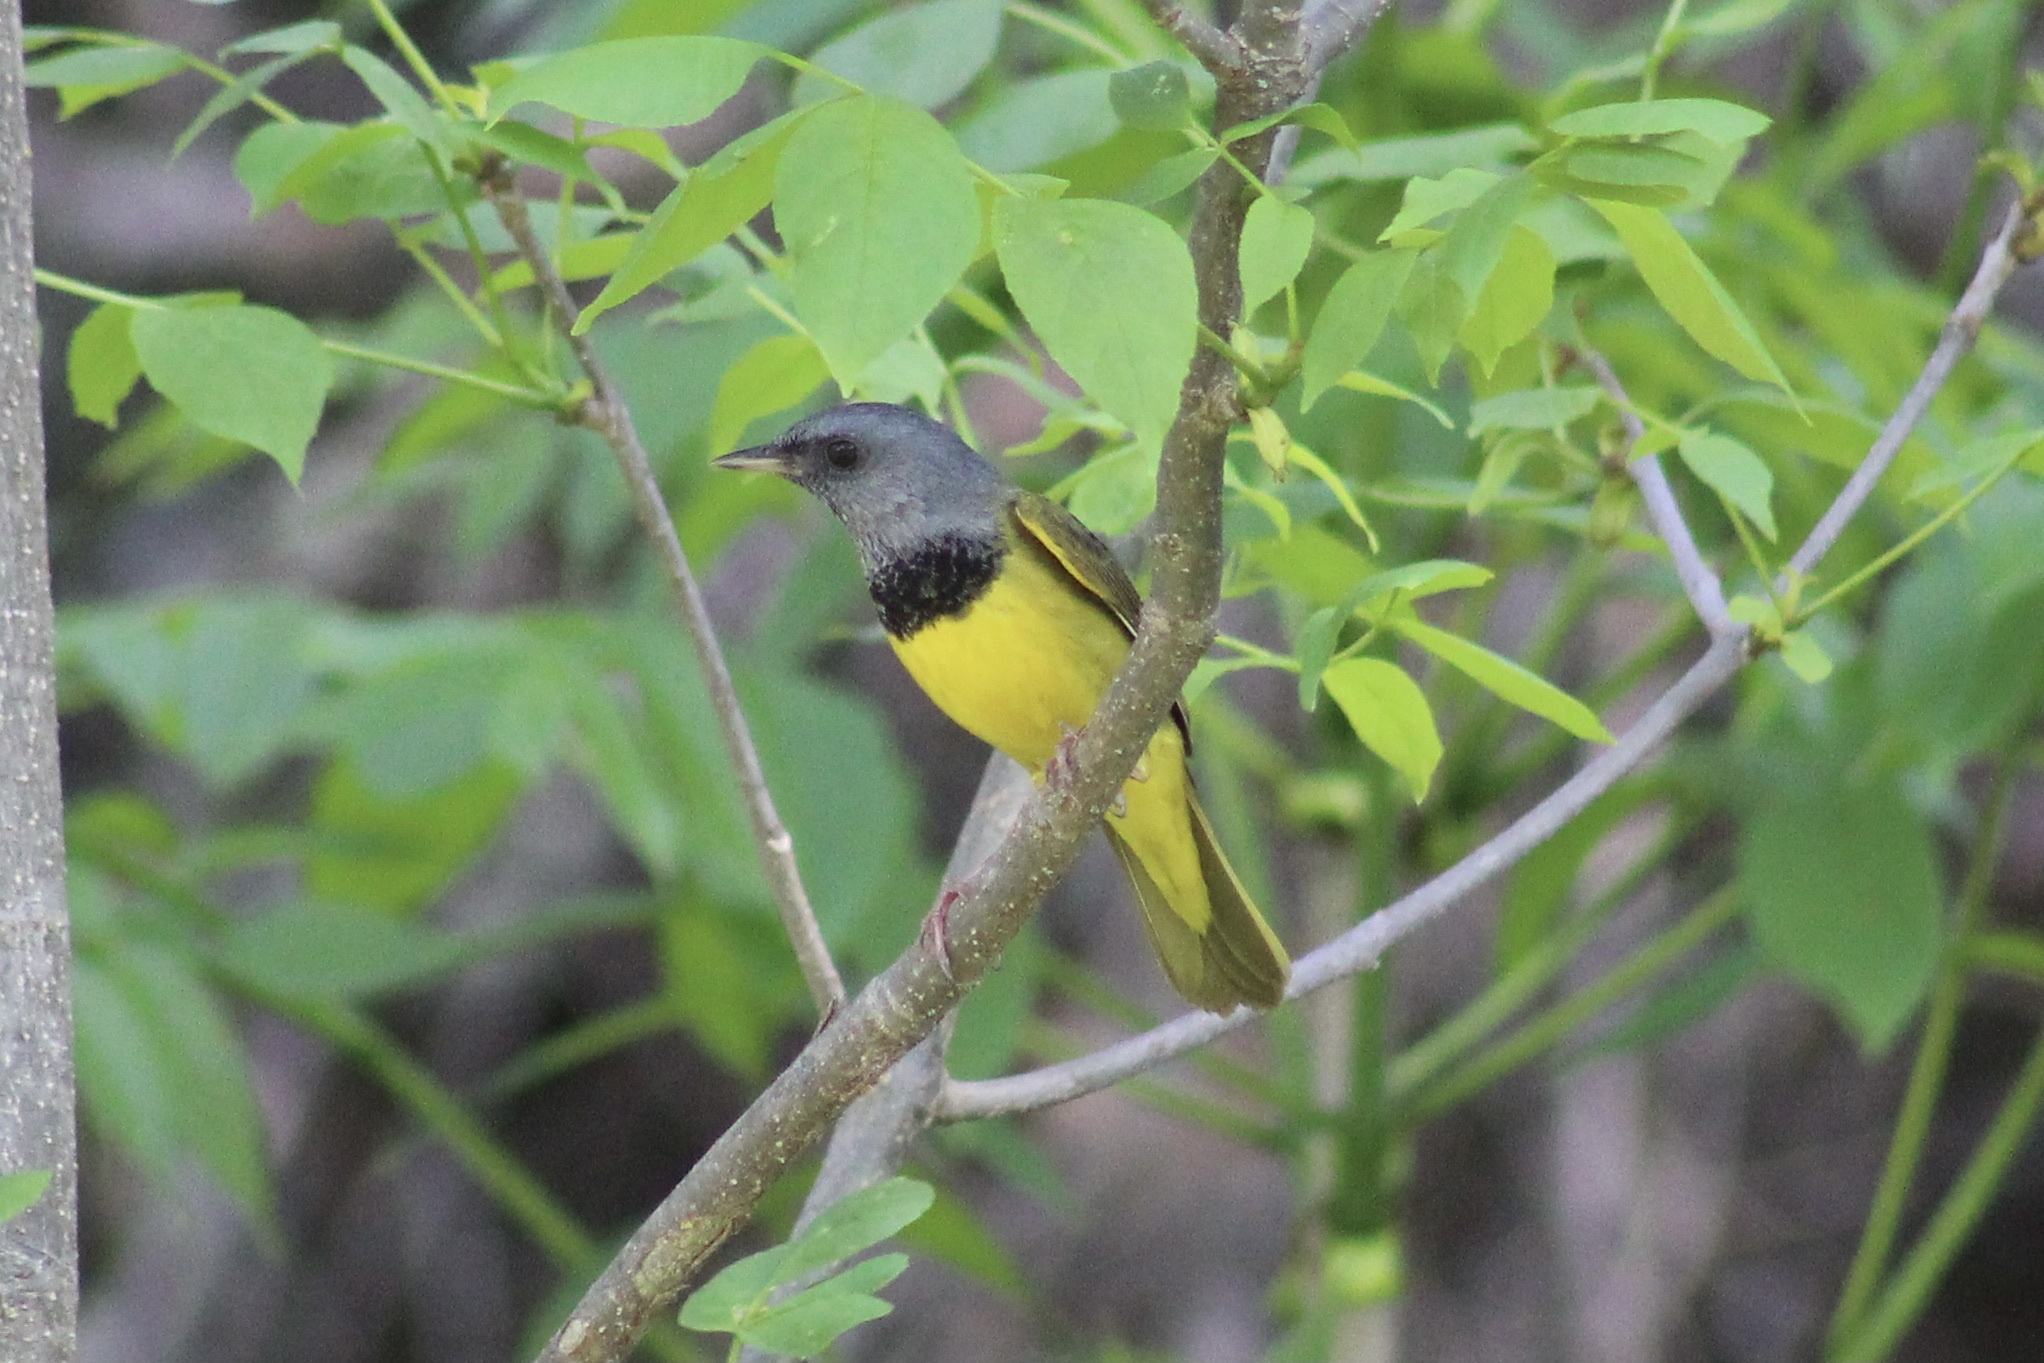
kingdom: Animalia
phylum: Chordata
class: Aves
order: Passeriformes
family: Parulidae
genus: Geothlypis
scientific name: Geothlypis philadelphia
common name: Mourning warbler
